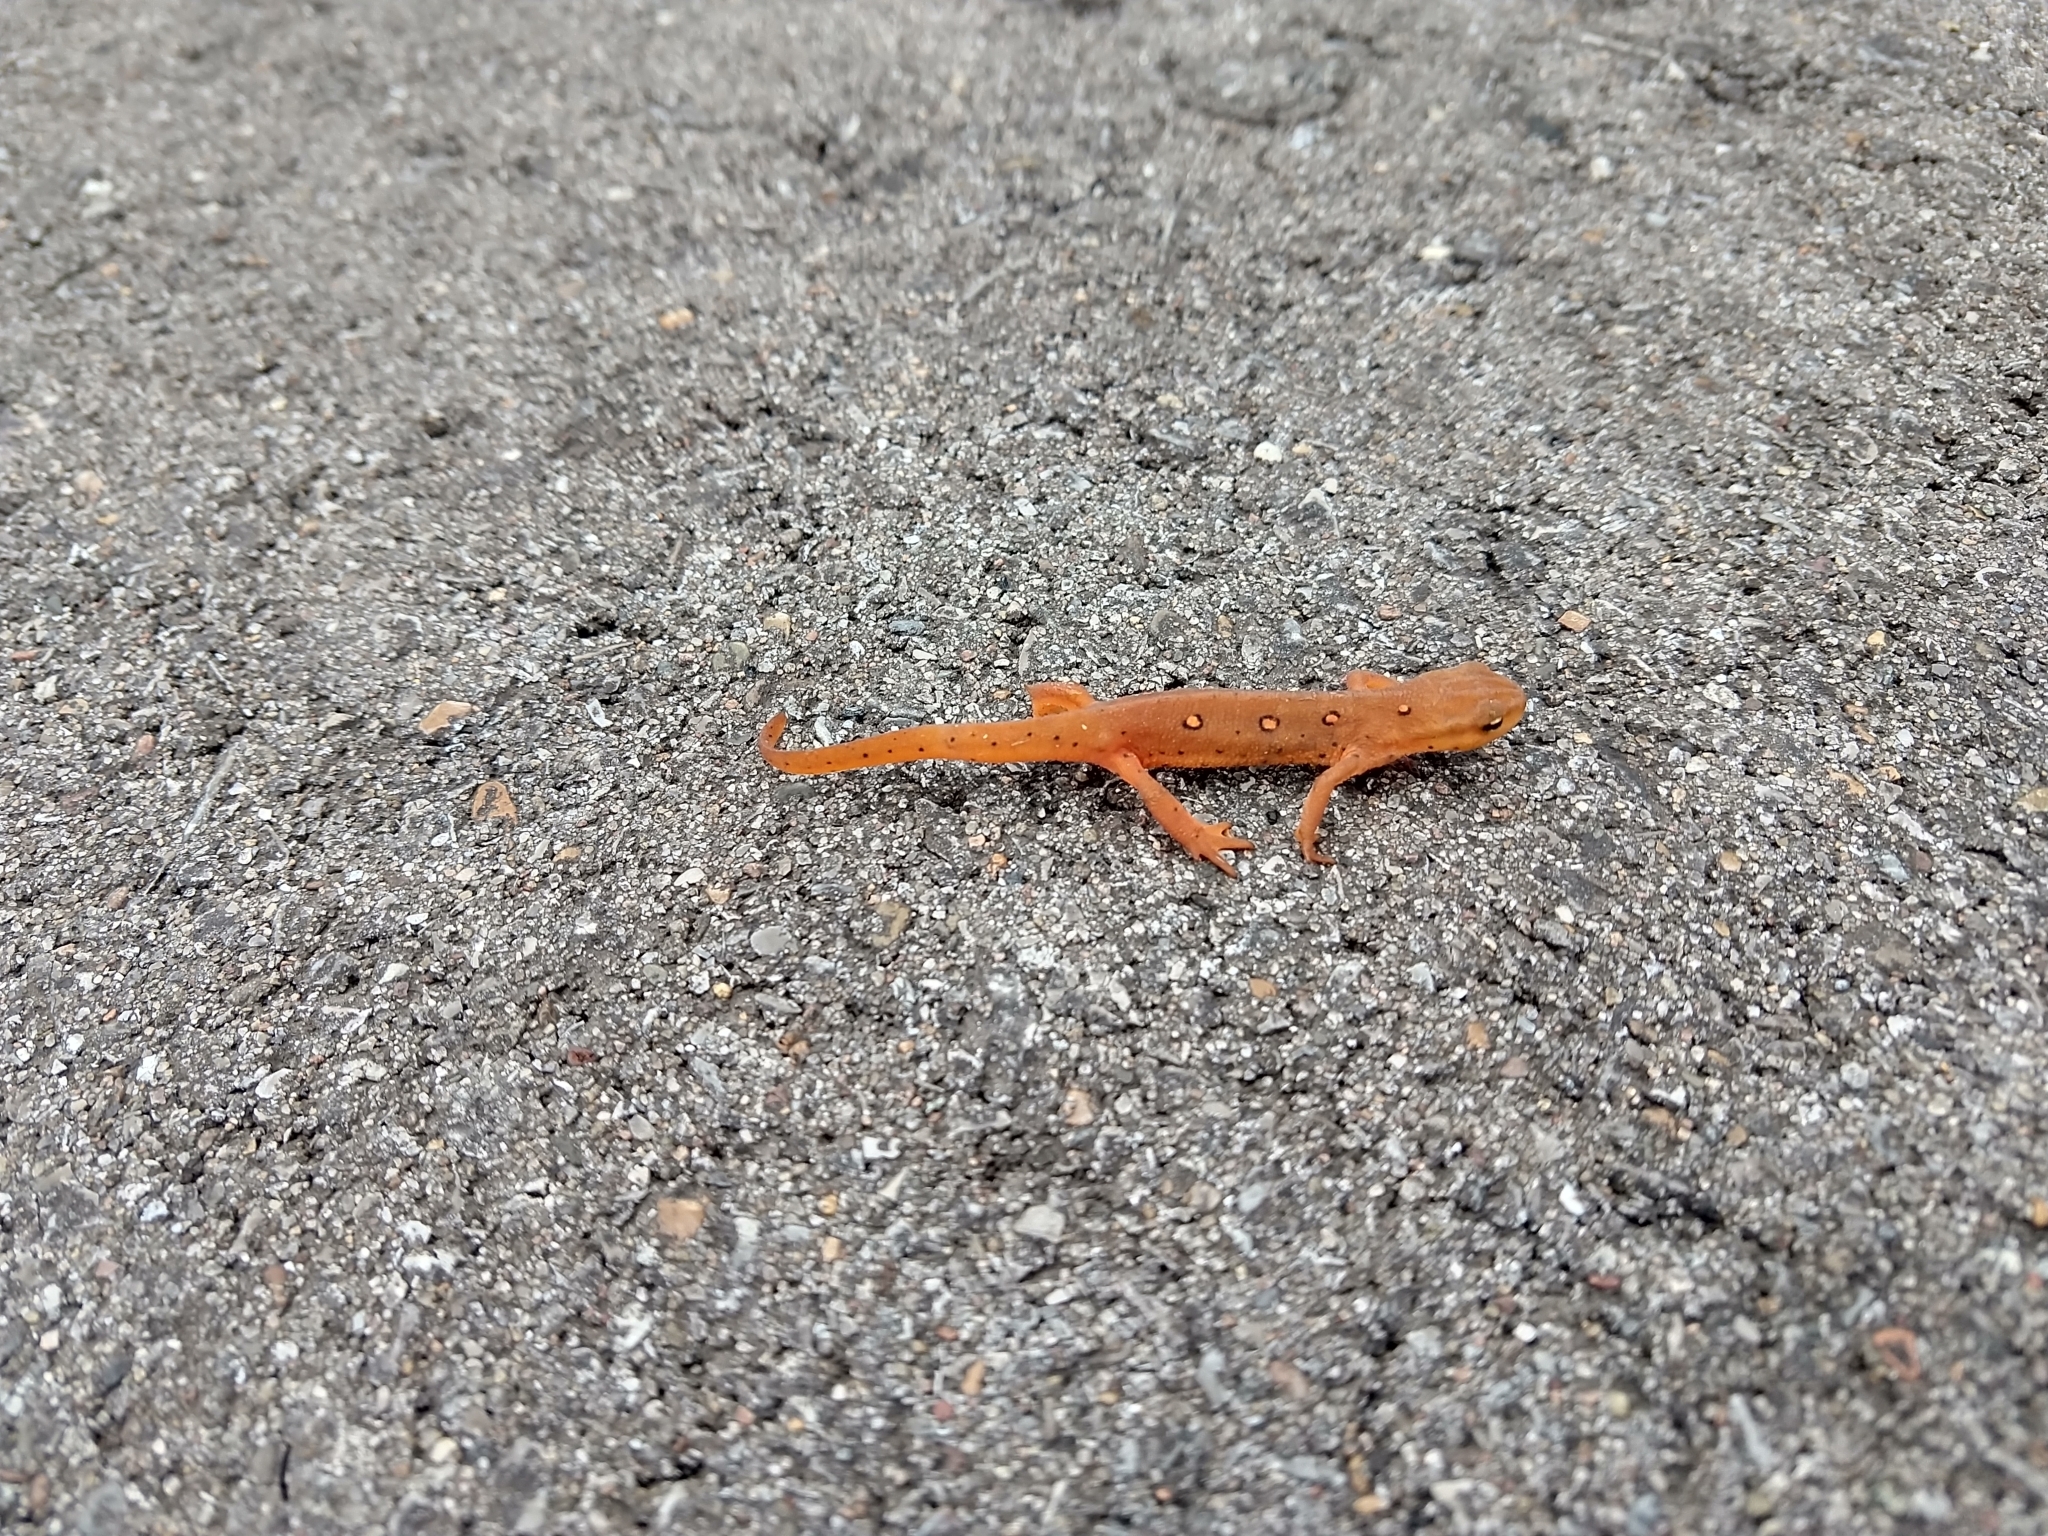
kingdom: Animalia
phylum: Chordata
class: Amphibia
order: Caudata
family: Salamandridae
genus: Notophthalmus
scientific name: Notophthalmus viridescens
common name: Eastern newt
